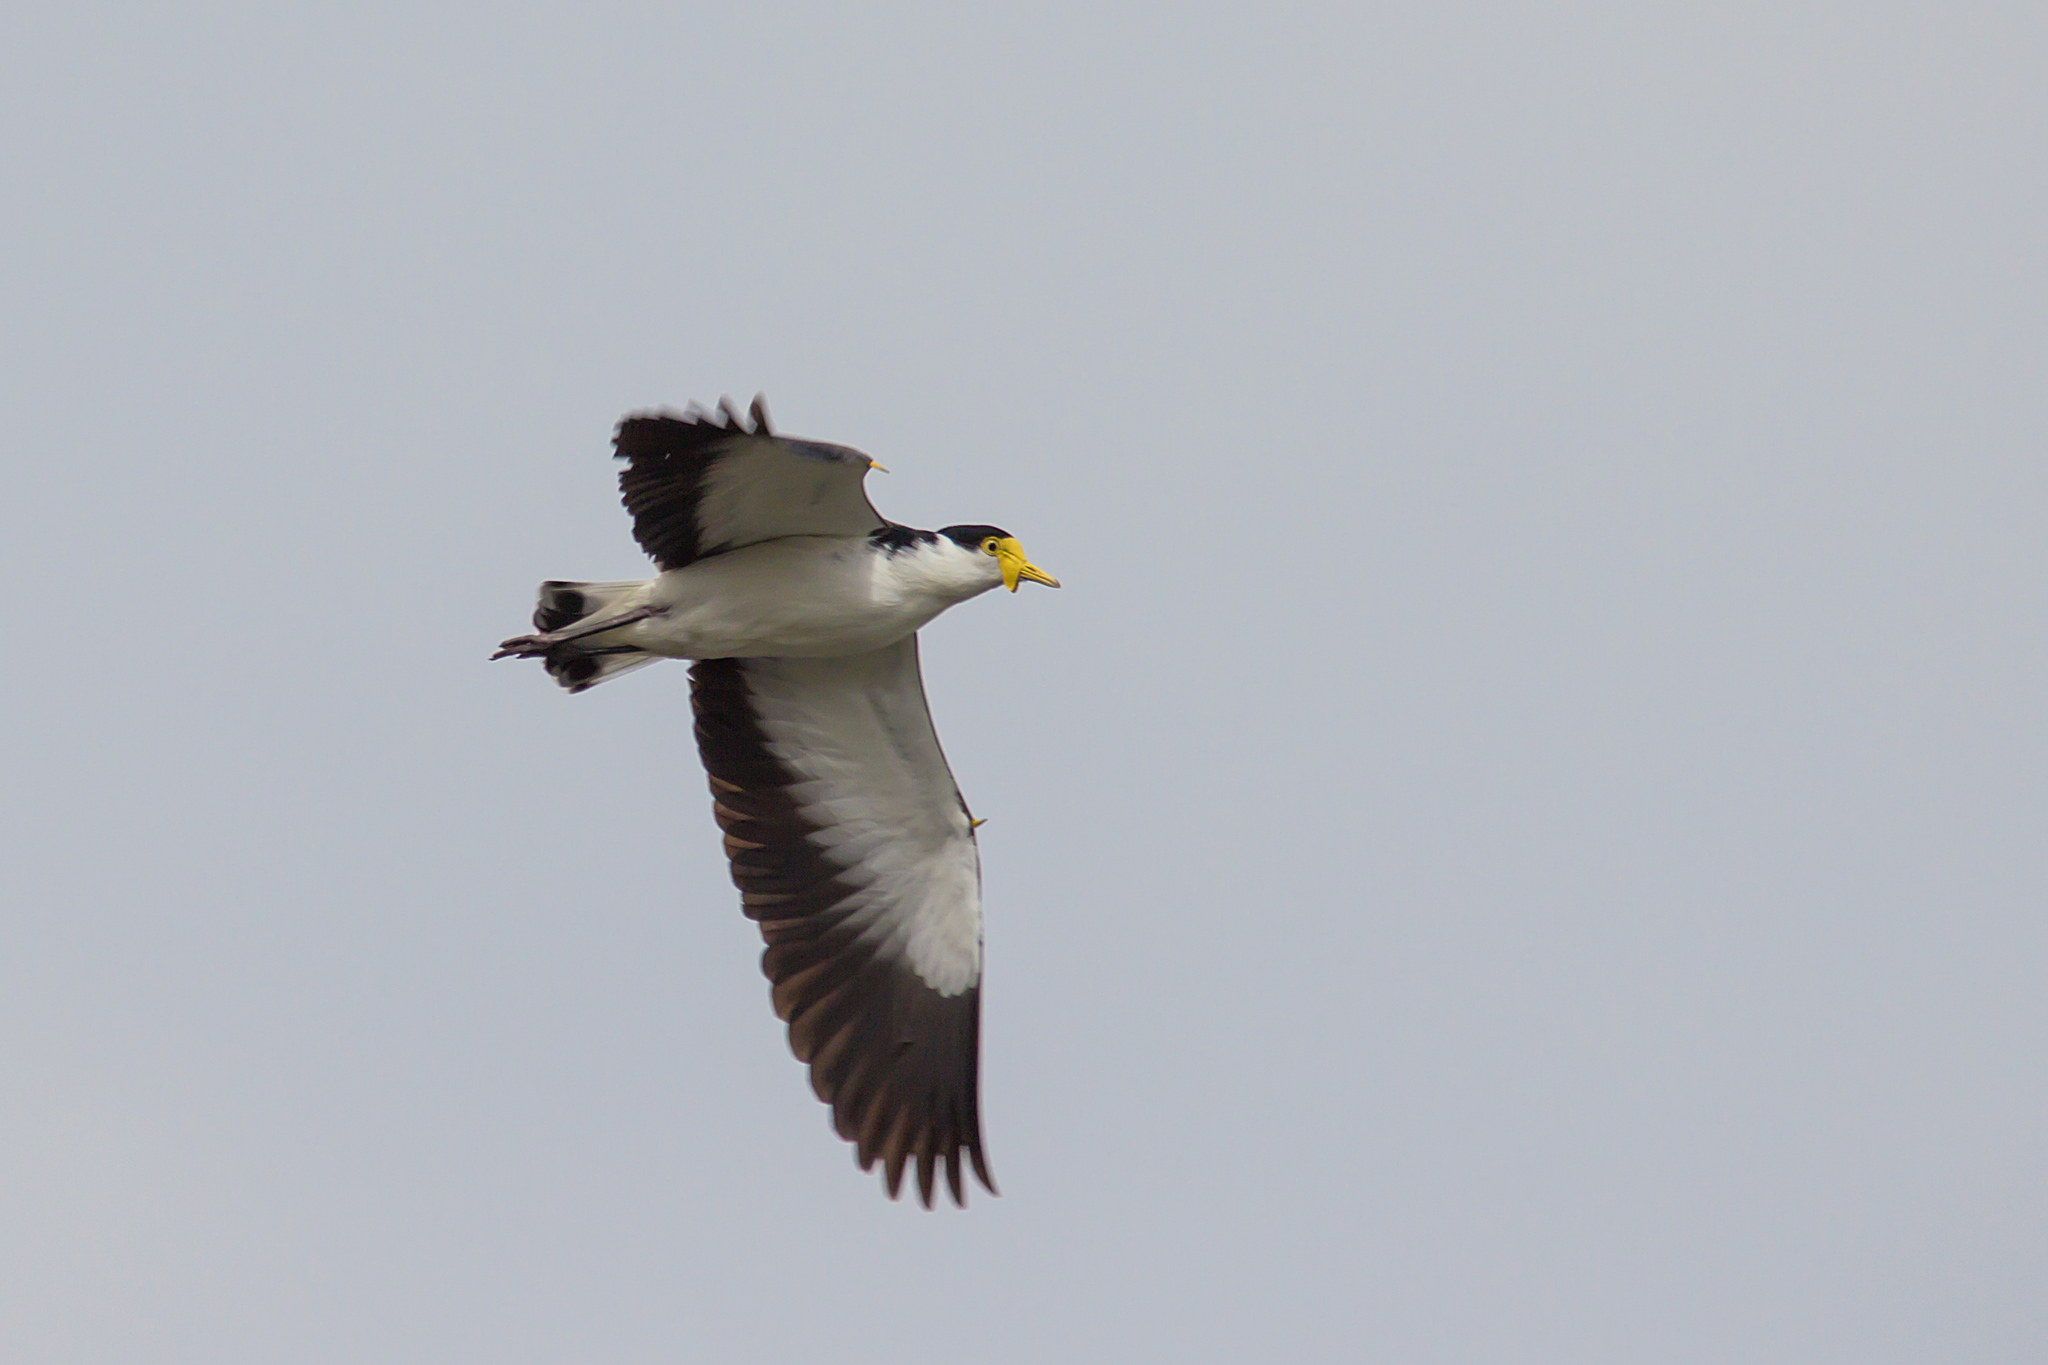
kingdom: Animalia
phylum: Chordata
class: Aves
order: Charadriiformes
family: Charadriidae
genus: Vanellus
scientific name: Vanellus miles
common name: Masked lapwing
